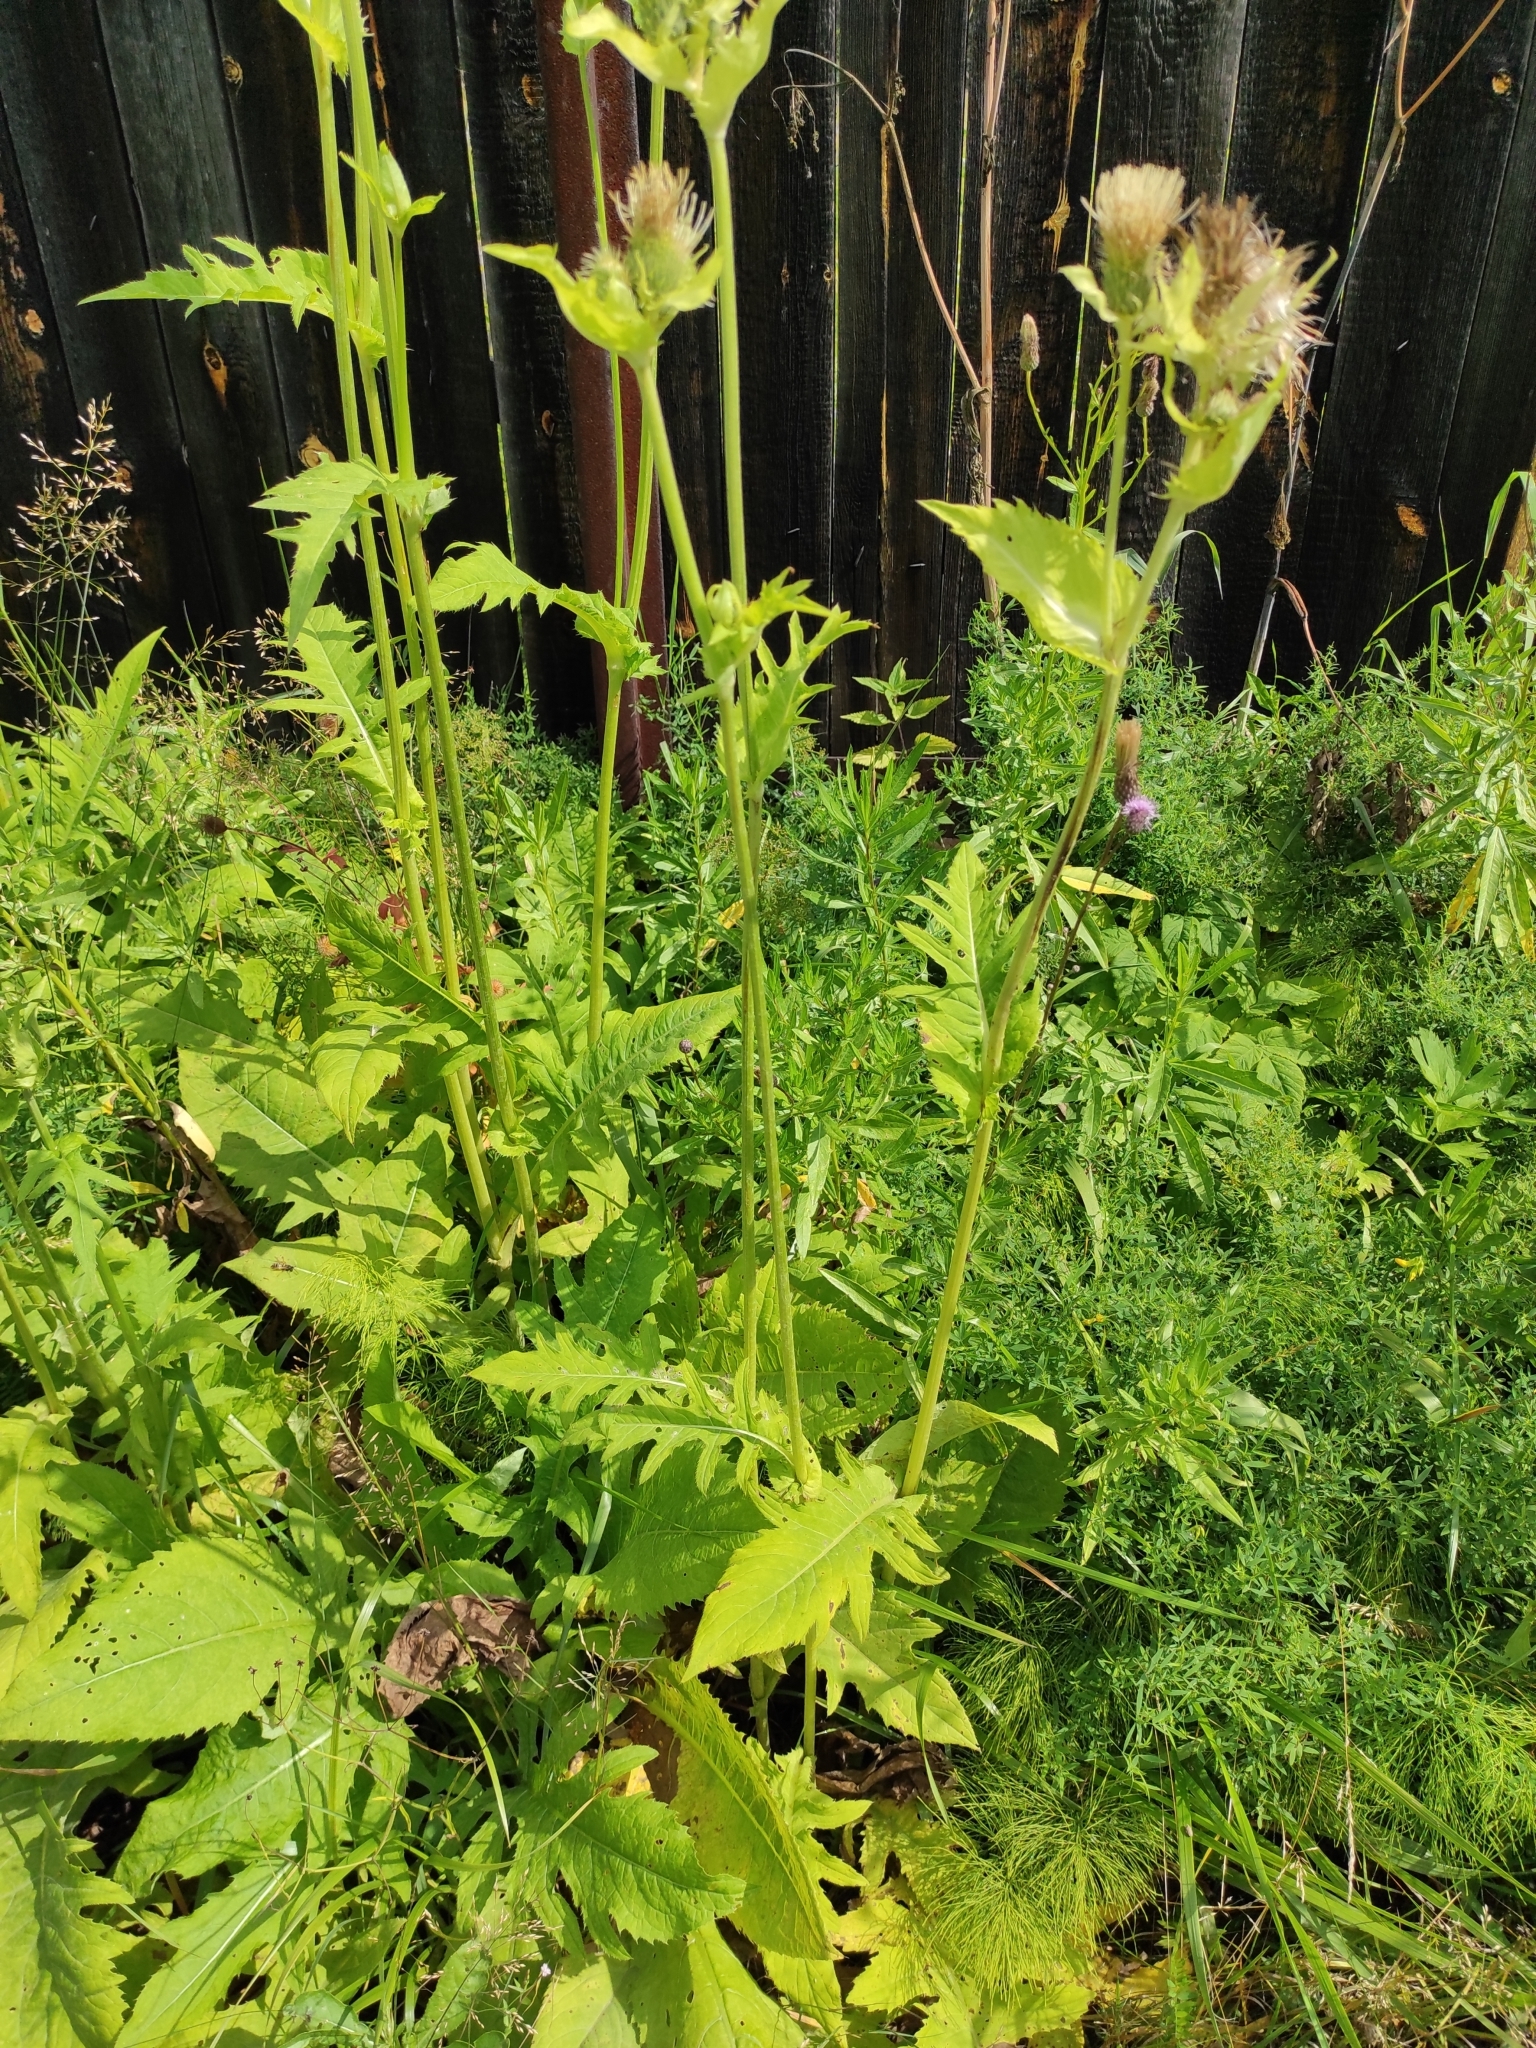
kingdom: Plantae
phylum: Tracheophyta
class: Magnoliopsida
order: Asterales
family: Asteraceae
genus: Cirsium
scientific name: Cirsium oleraceum
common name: Cabbage thistle
